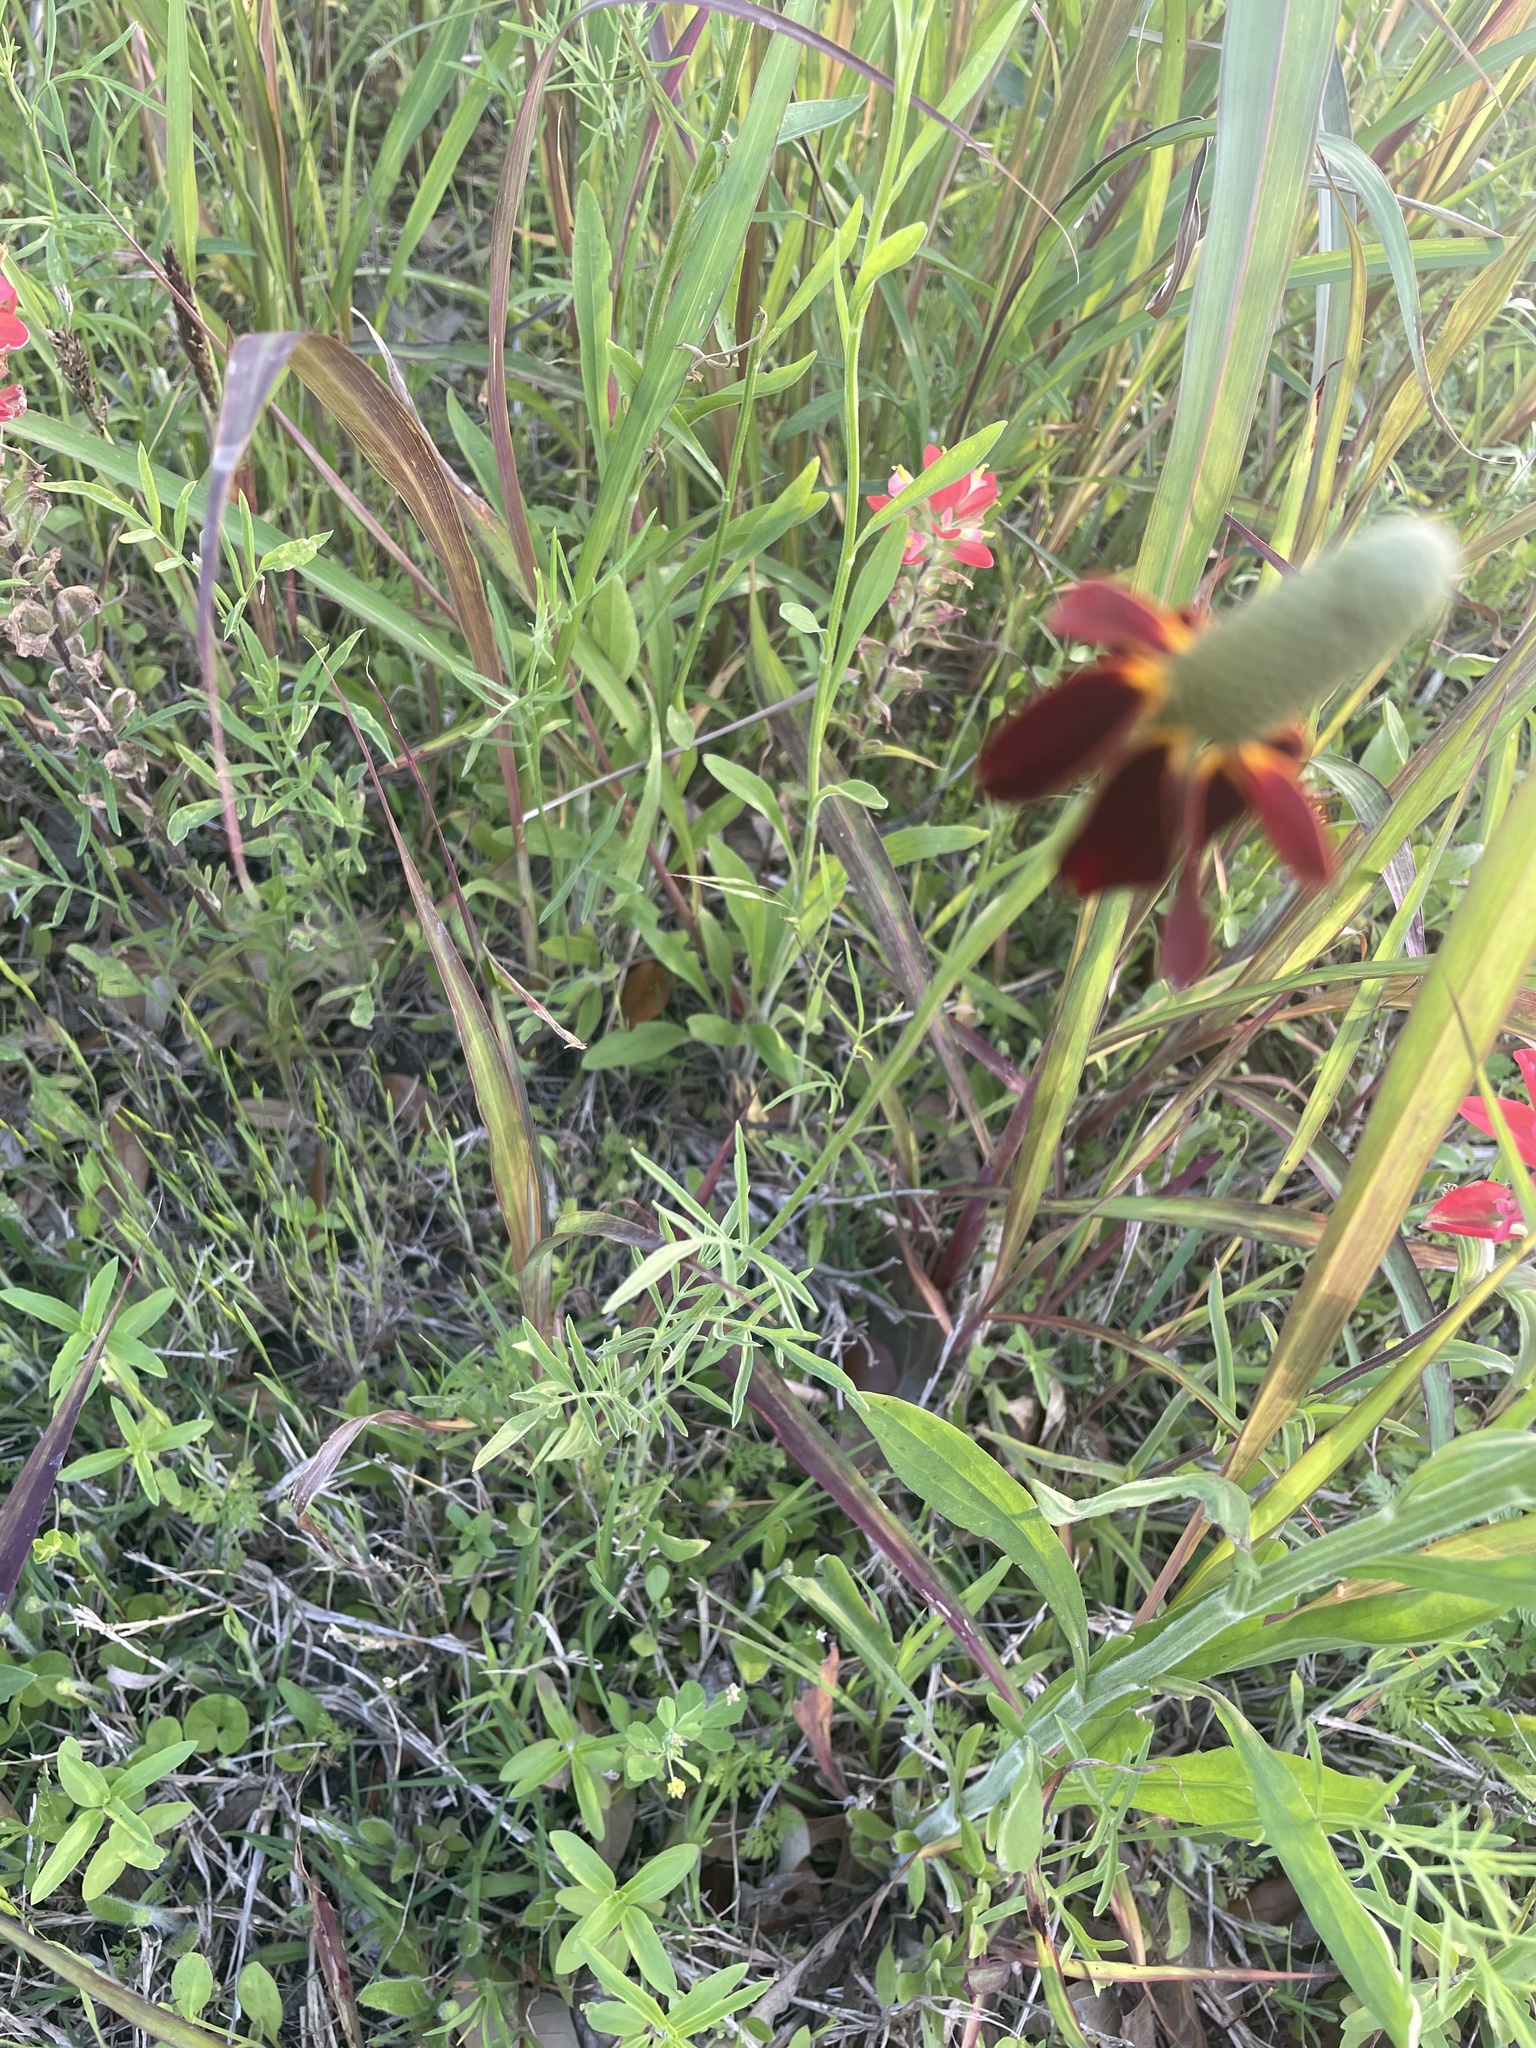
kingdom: Plantae
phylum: Tracheophyta
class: Magnoliopsida
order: Asterales
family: Asteraceae
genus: Ratibida
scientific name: Ratibida columnifera
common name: Prairie coneflower
